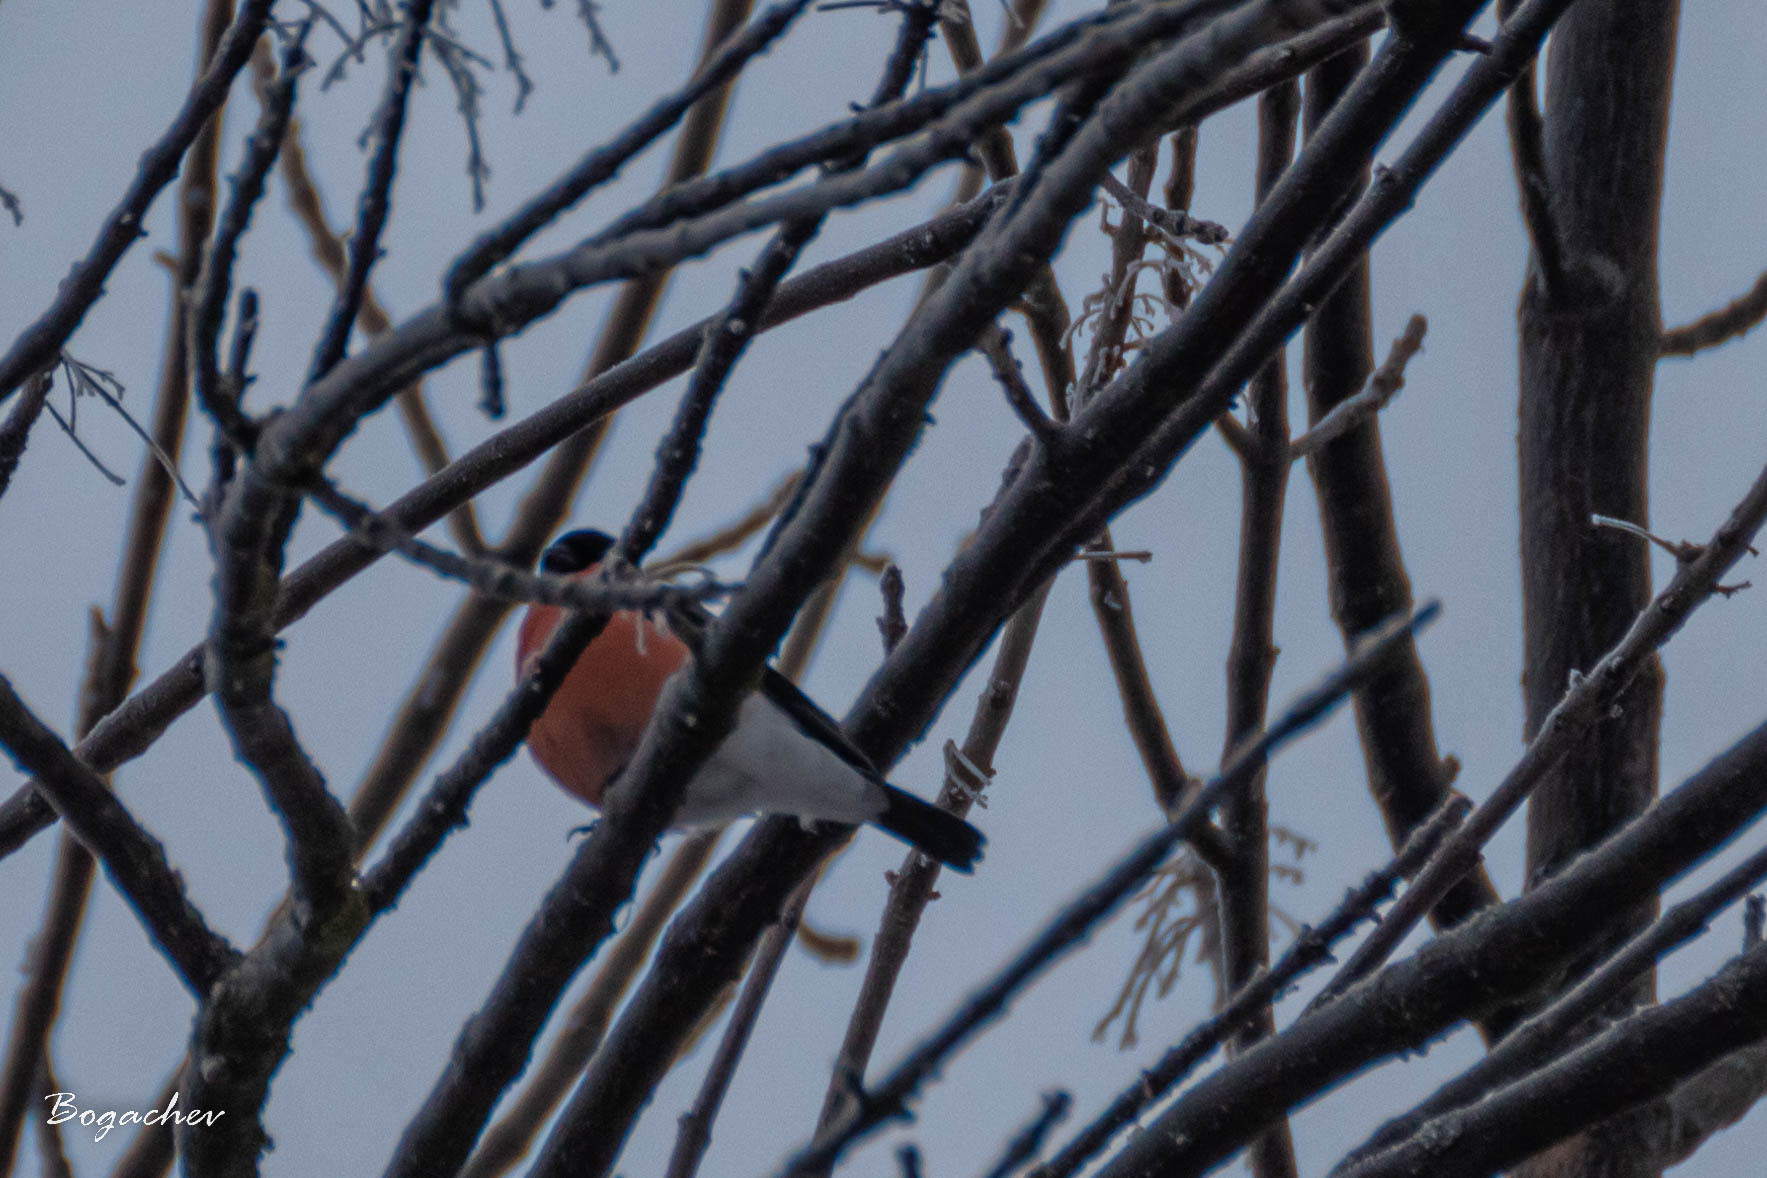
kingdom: Animalia
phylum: Chordata
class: Aves
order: Passeriformes
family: Fringillidae
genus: Pyrrhula
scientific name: Pyrrhula pyrrhula
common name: Eurasian bullfinch
